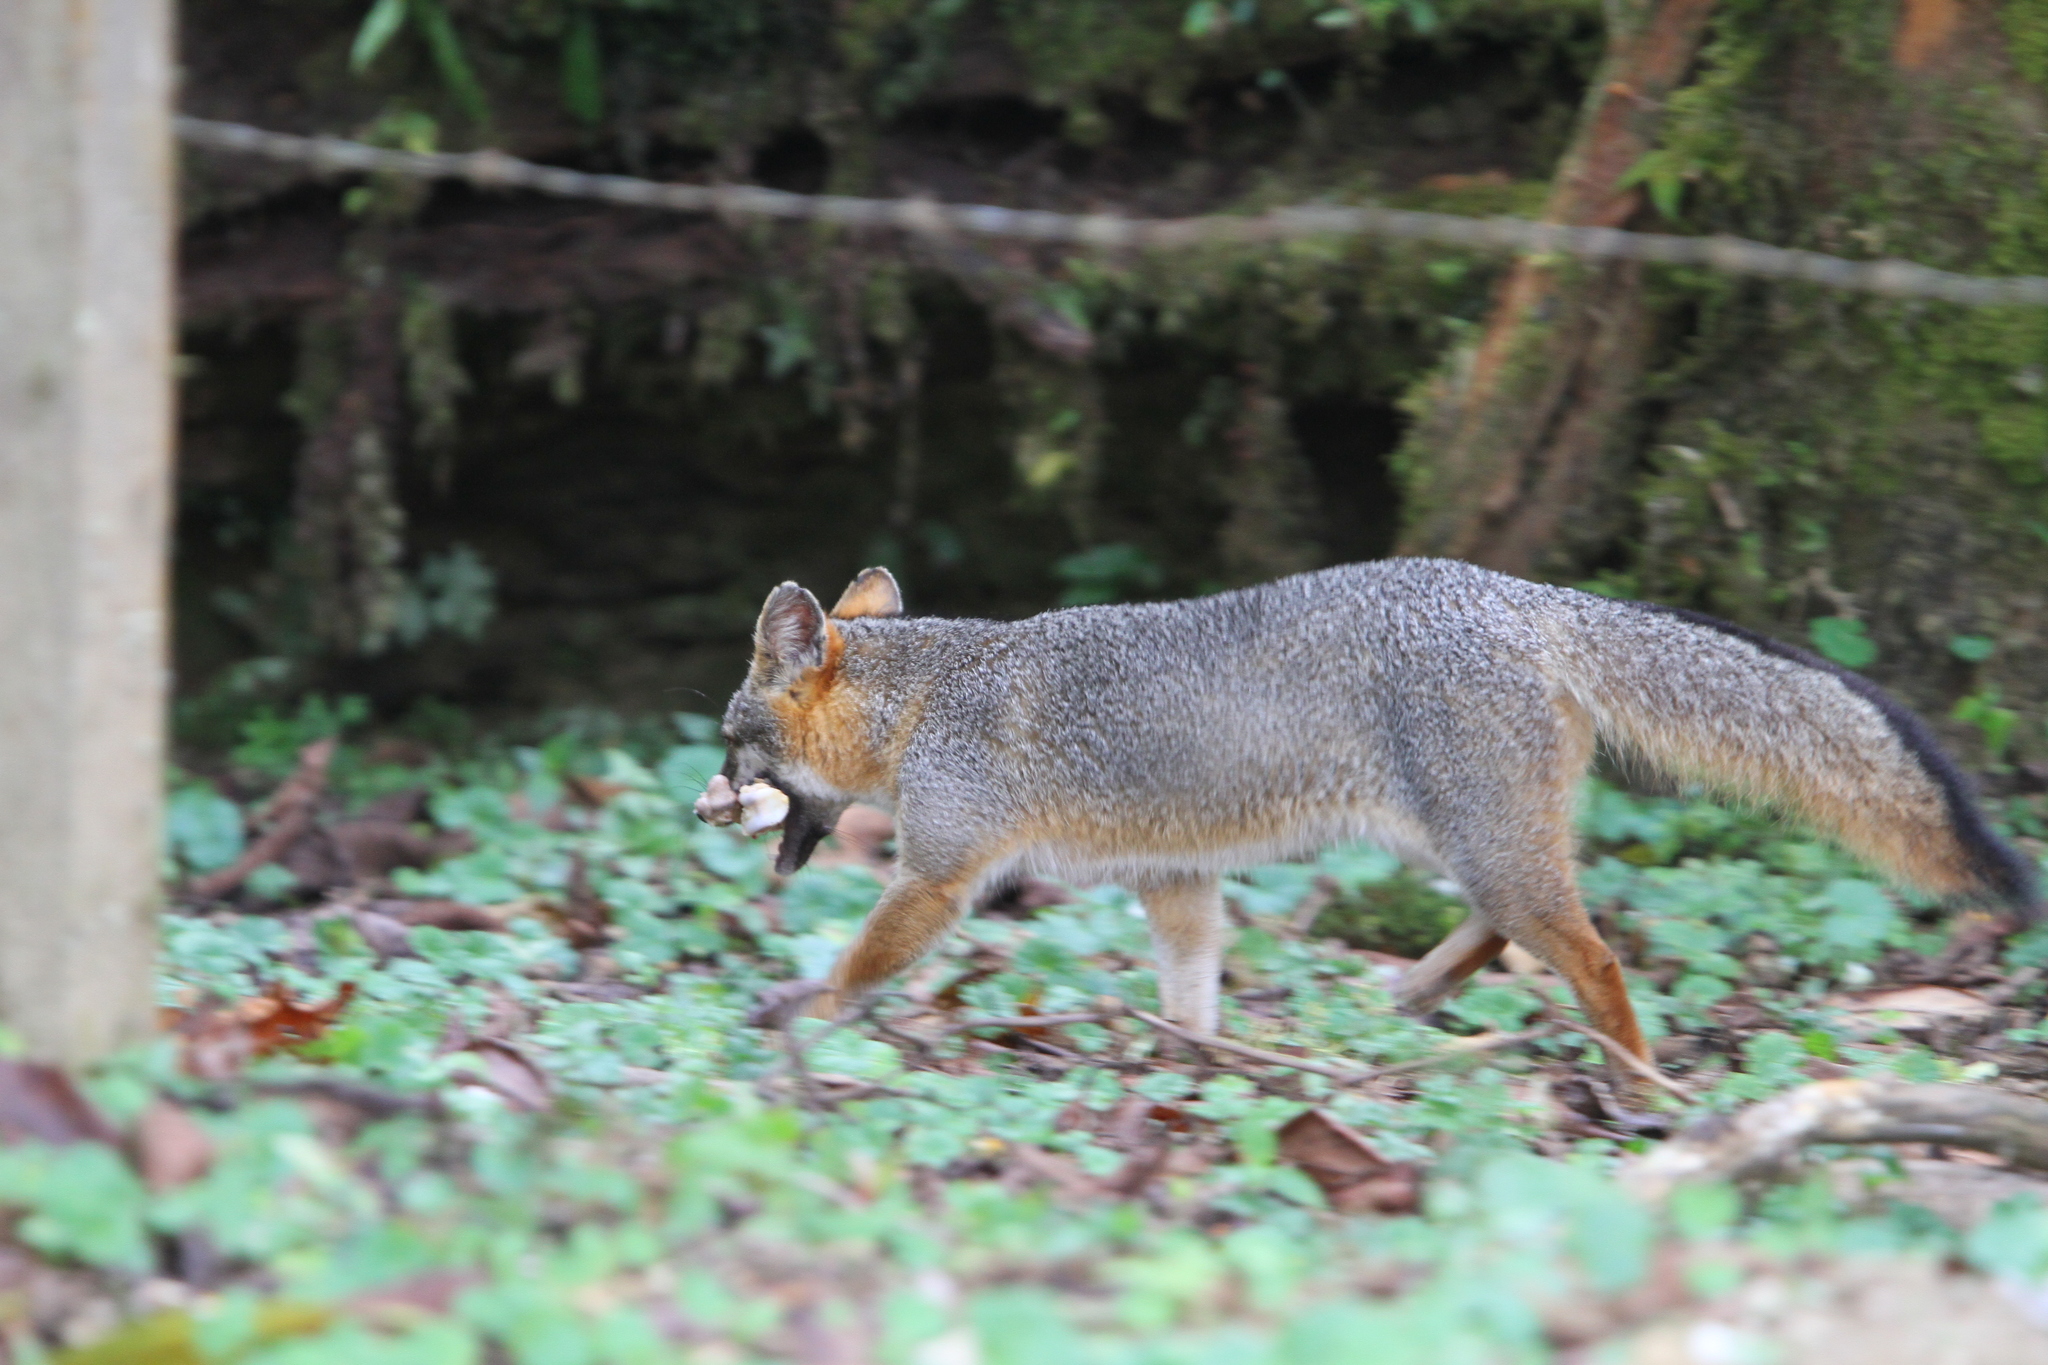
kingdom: Animalia
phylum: Chordata
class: Mammalia
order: Carnivora
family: Canidae
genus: Urocyon
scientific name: Urocyon cinereoargenteus
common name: Gray fox
